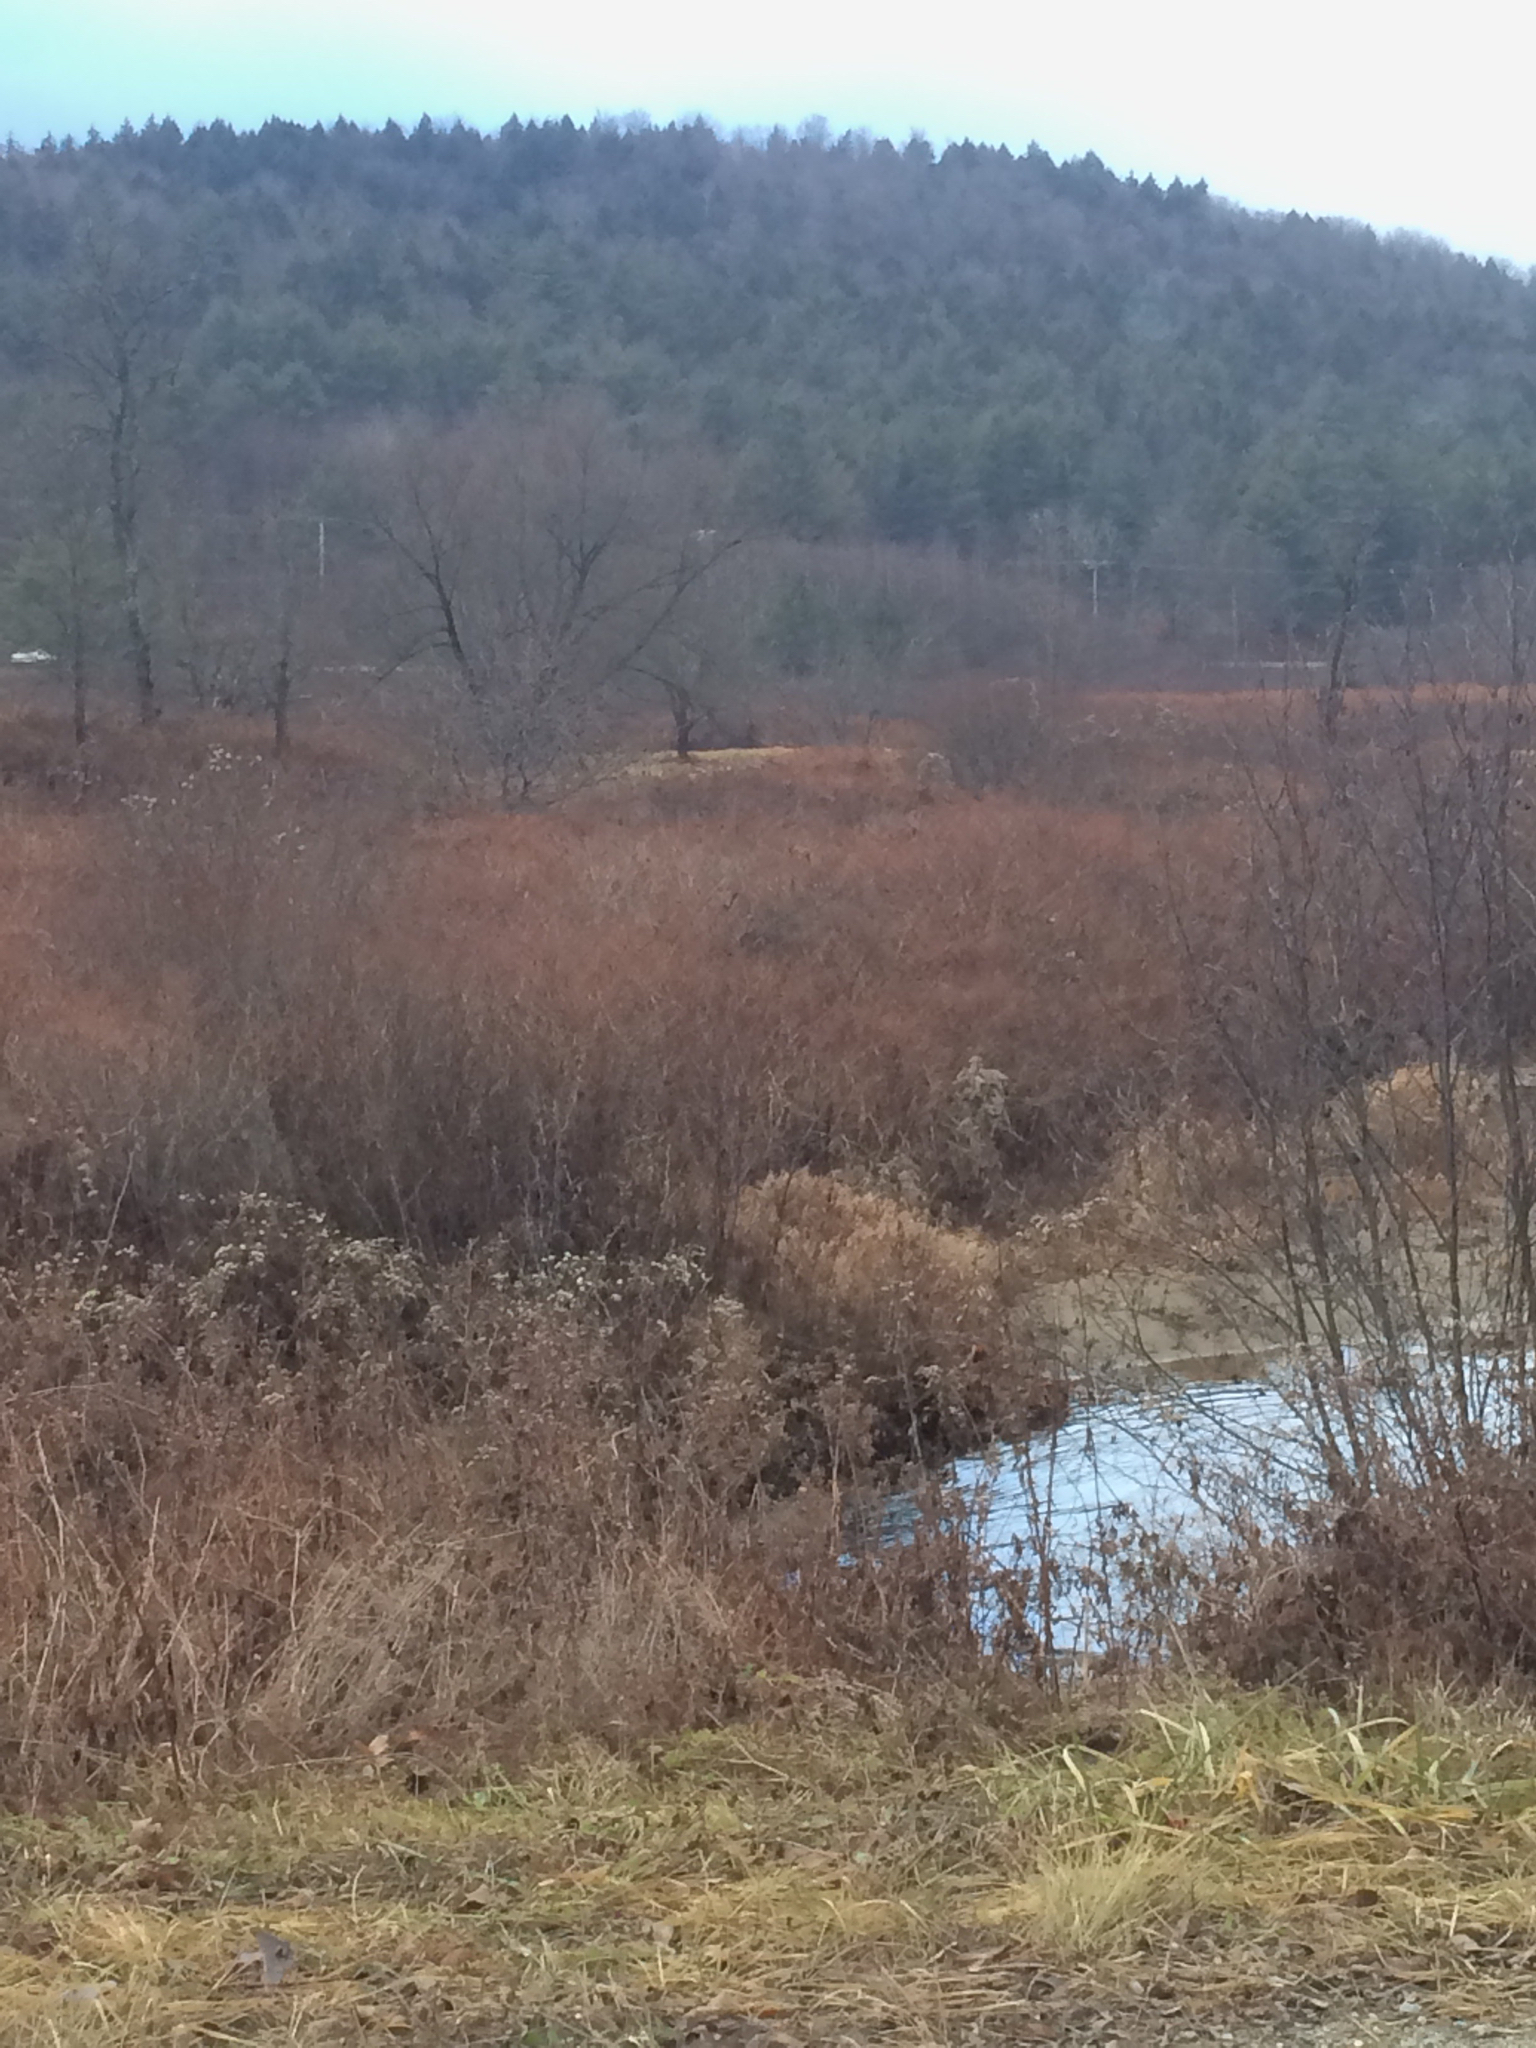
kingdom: Plantae
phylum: Tracheophyta
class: Magnoliopsida
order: Caryophyllales
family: Polygonaceae
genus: Reynoutria
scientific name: Reynoutria japonica
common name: Japanese knotweed
